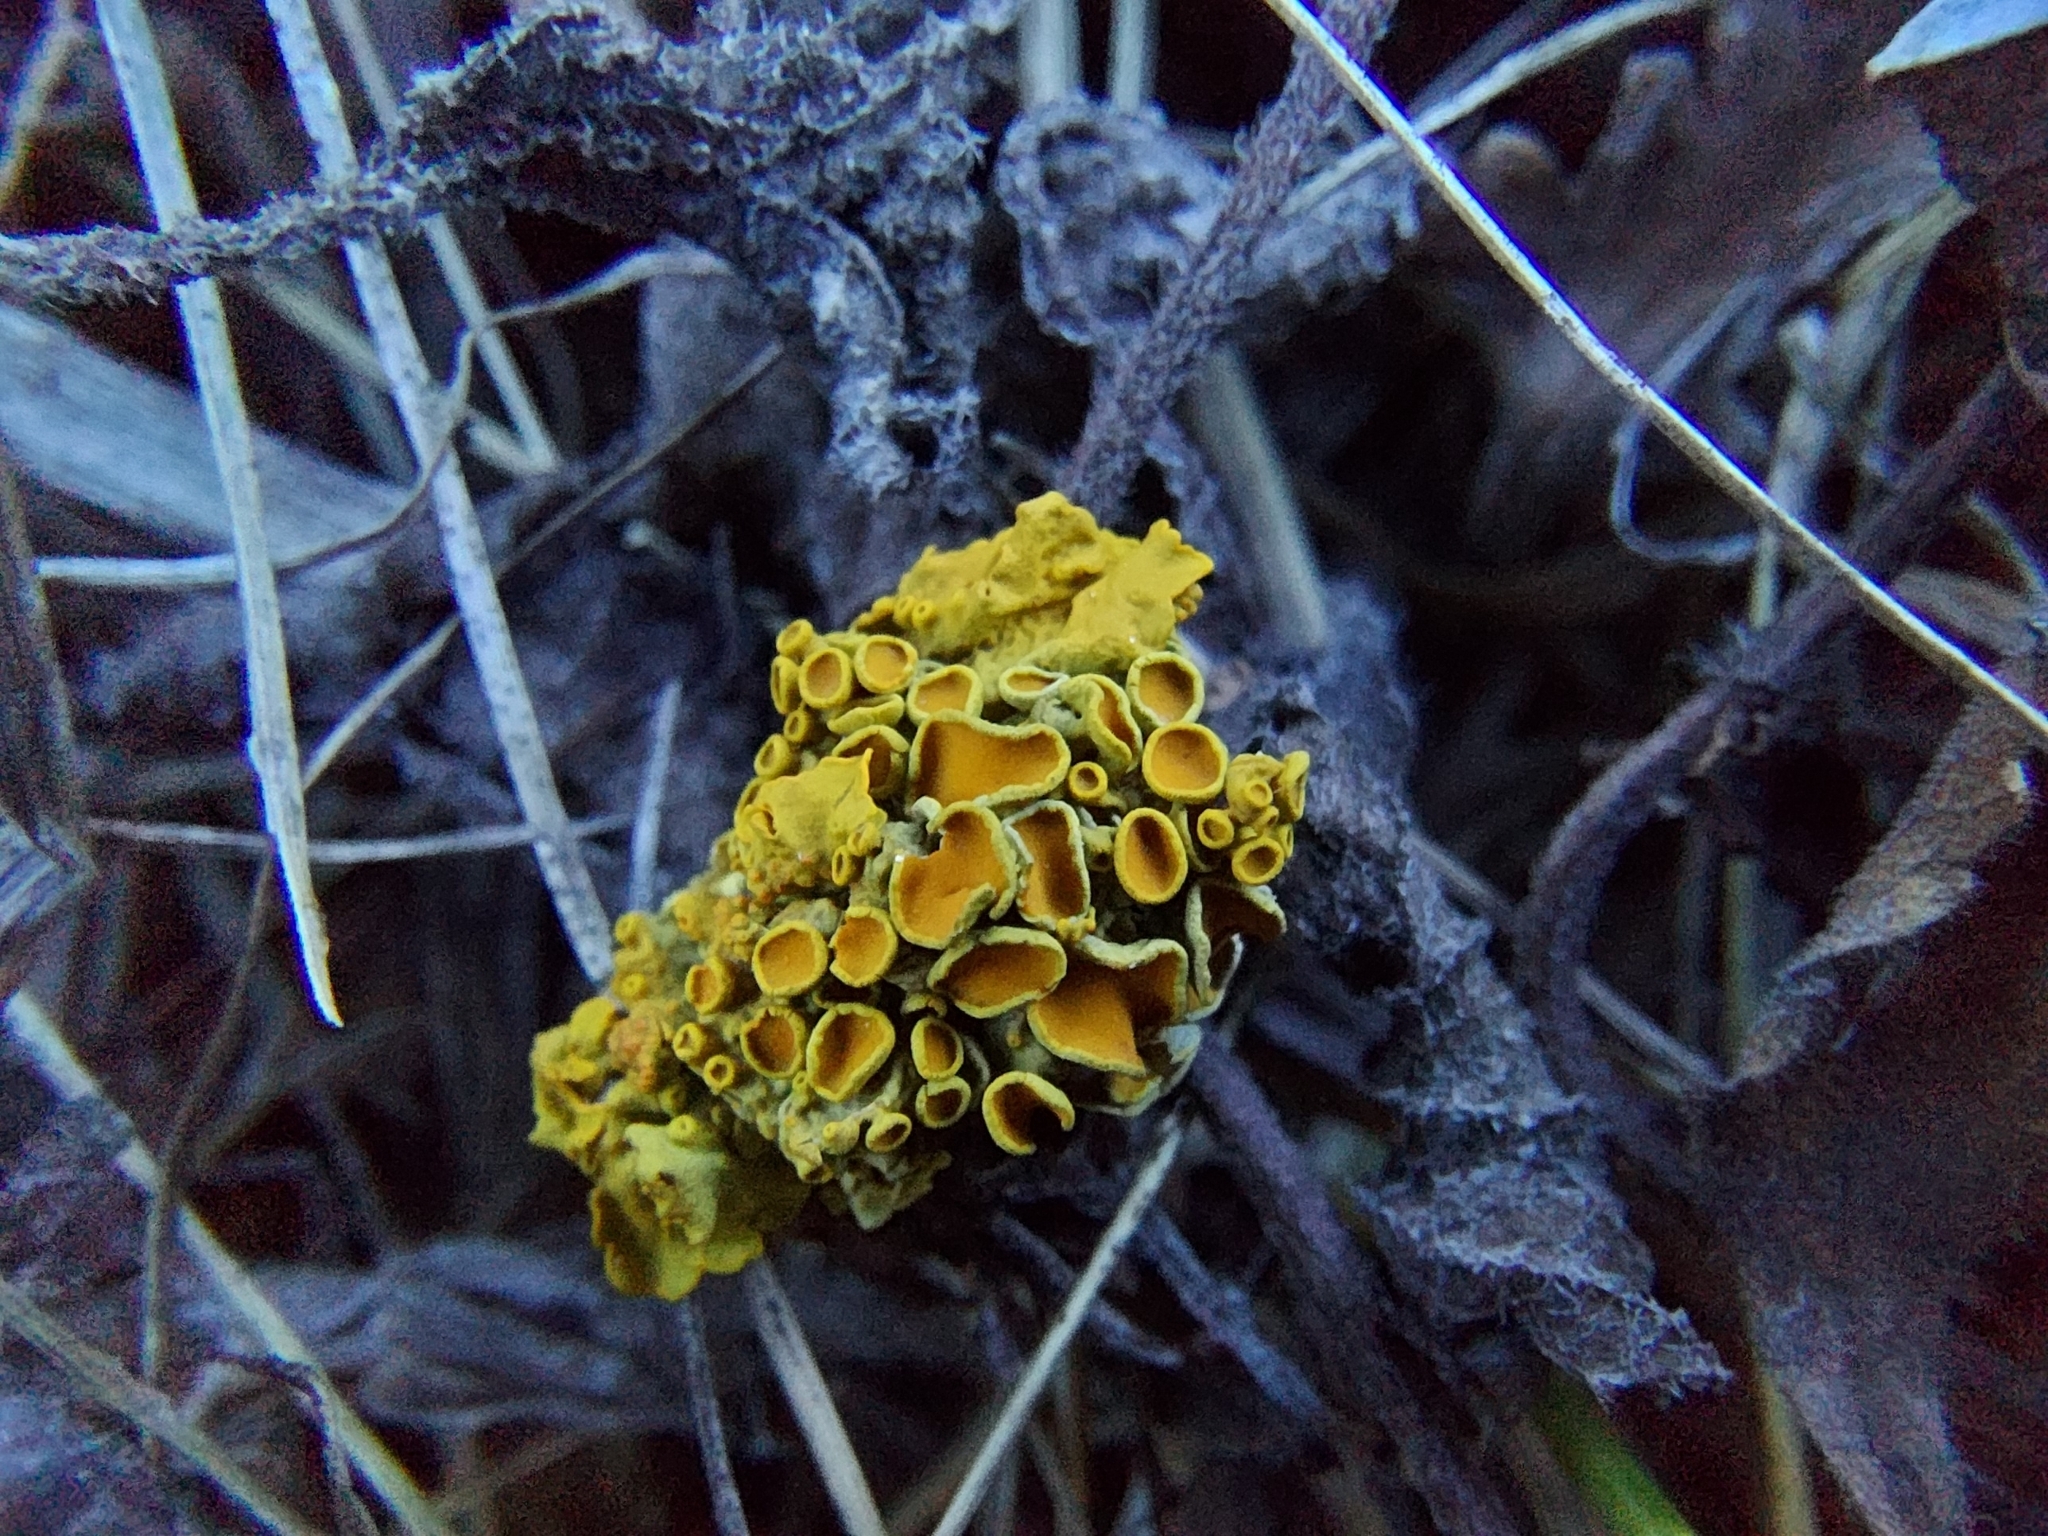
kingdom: Fungi
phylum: Ascomycota
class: Lecanoromycetes
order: Teloschistales
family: Teloschistaceae
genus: Xanthoria
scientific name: Xanthoria parietina
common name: Common orange lichen
